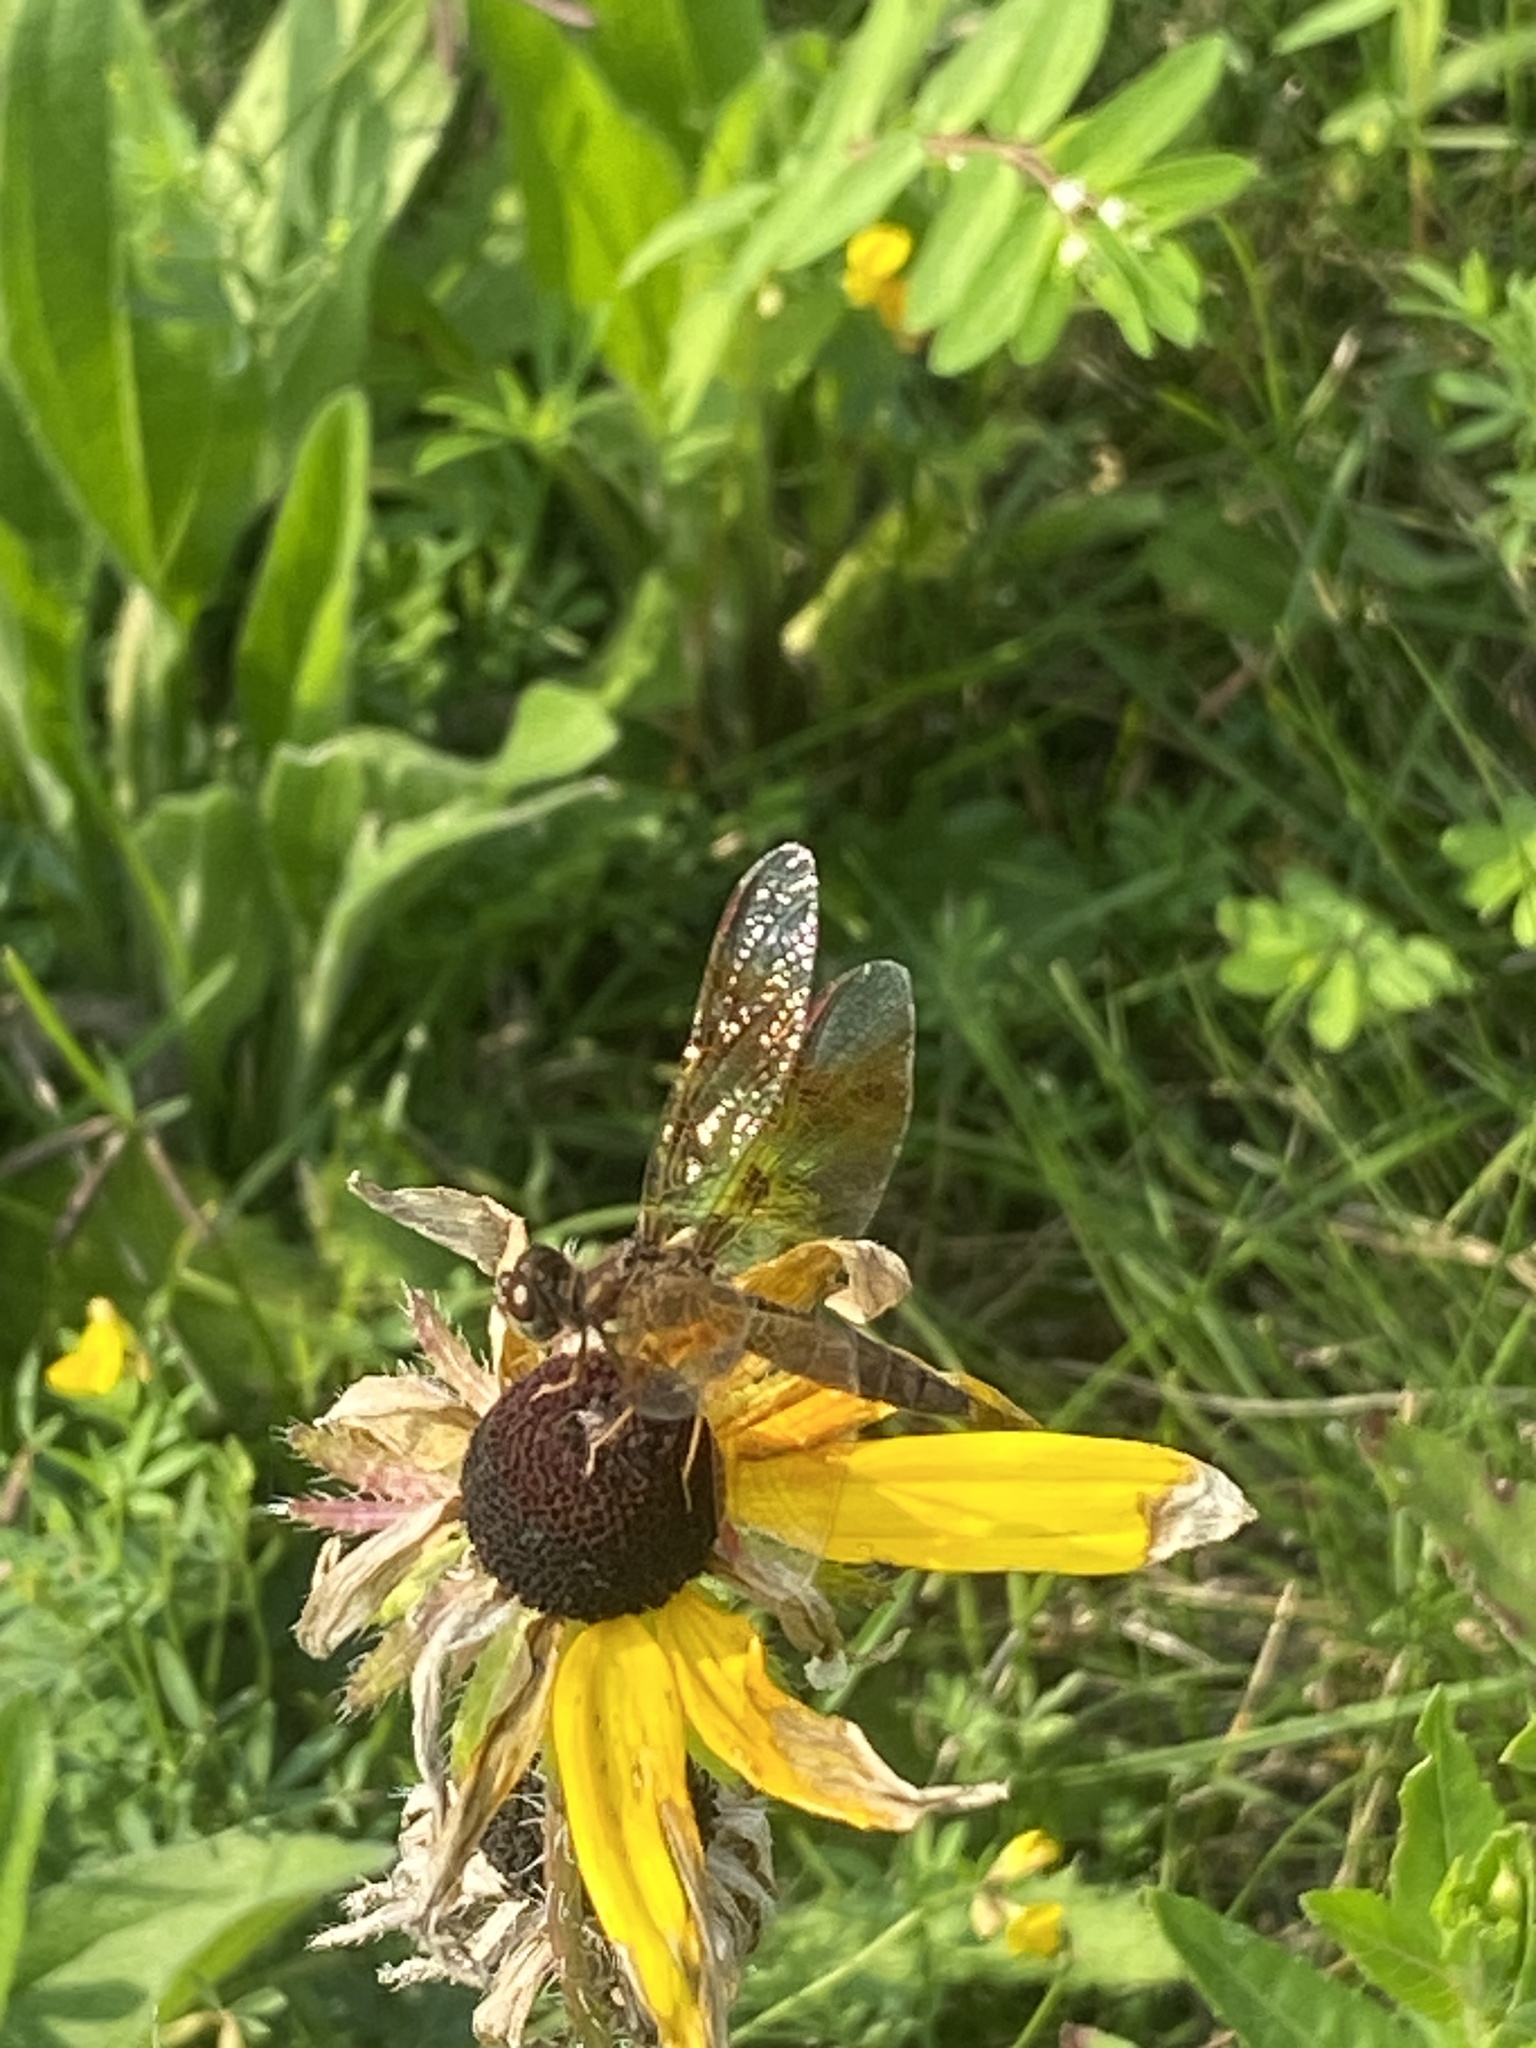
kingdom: Animalia
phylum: Arthropoda
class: Insecta
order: Odonata
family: Libellulidae
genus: Perithemis
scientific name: Perithemis tenera
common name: Eastern amberwing
